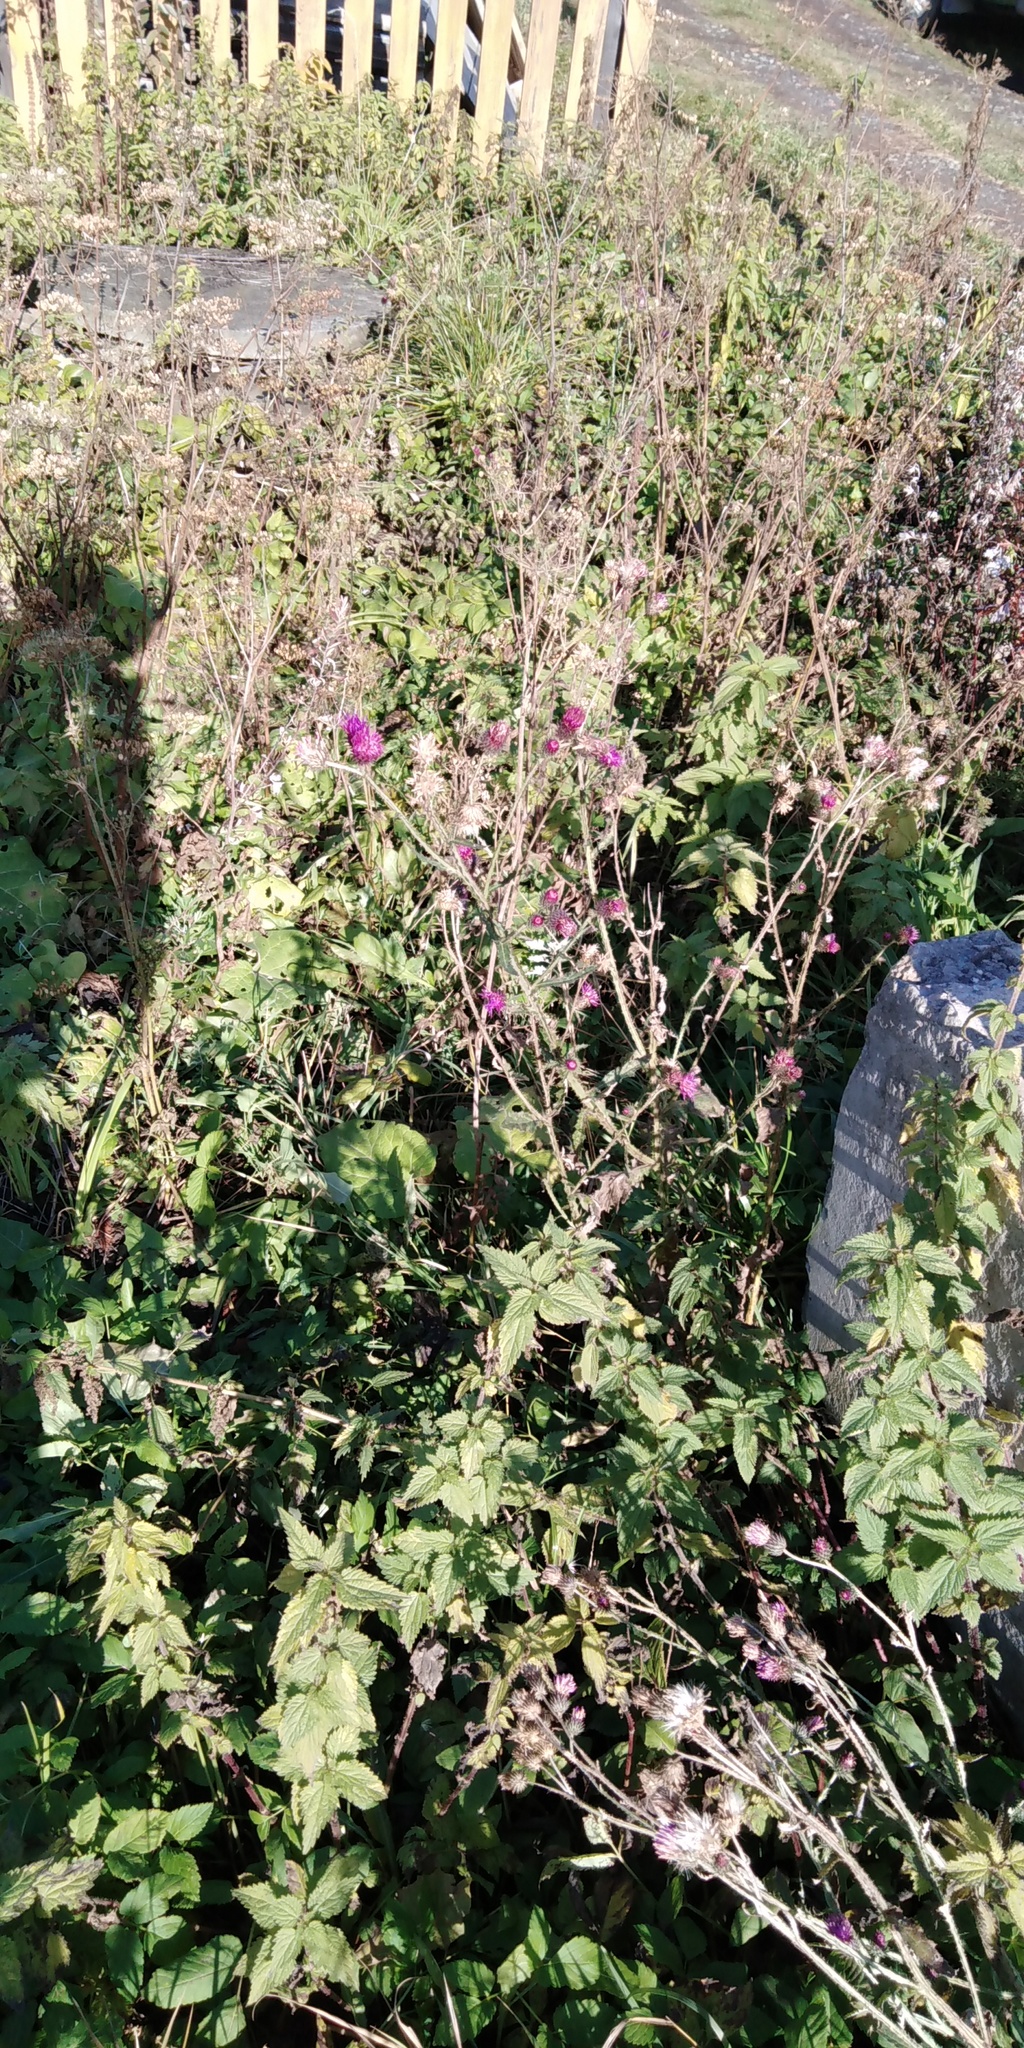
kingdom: Plantae
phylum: Tracheophyta
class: Magnoliopsida
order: Asterales
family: Asteraceae
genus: Carduus
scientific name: Carduus crispus
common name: Welted thistle
